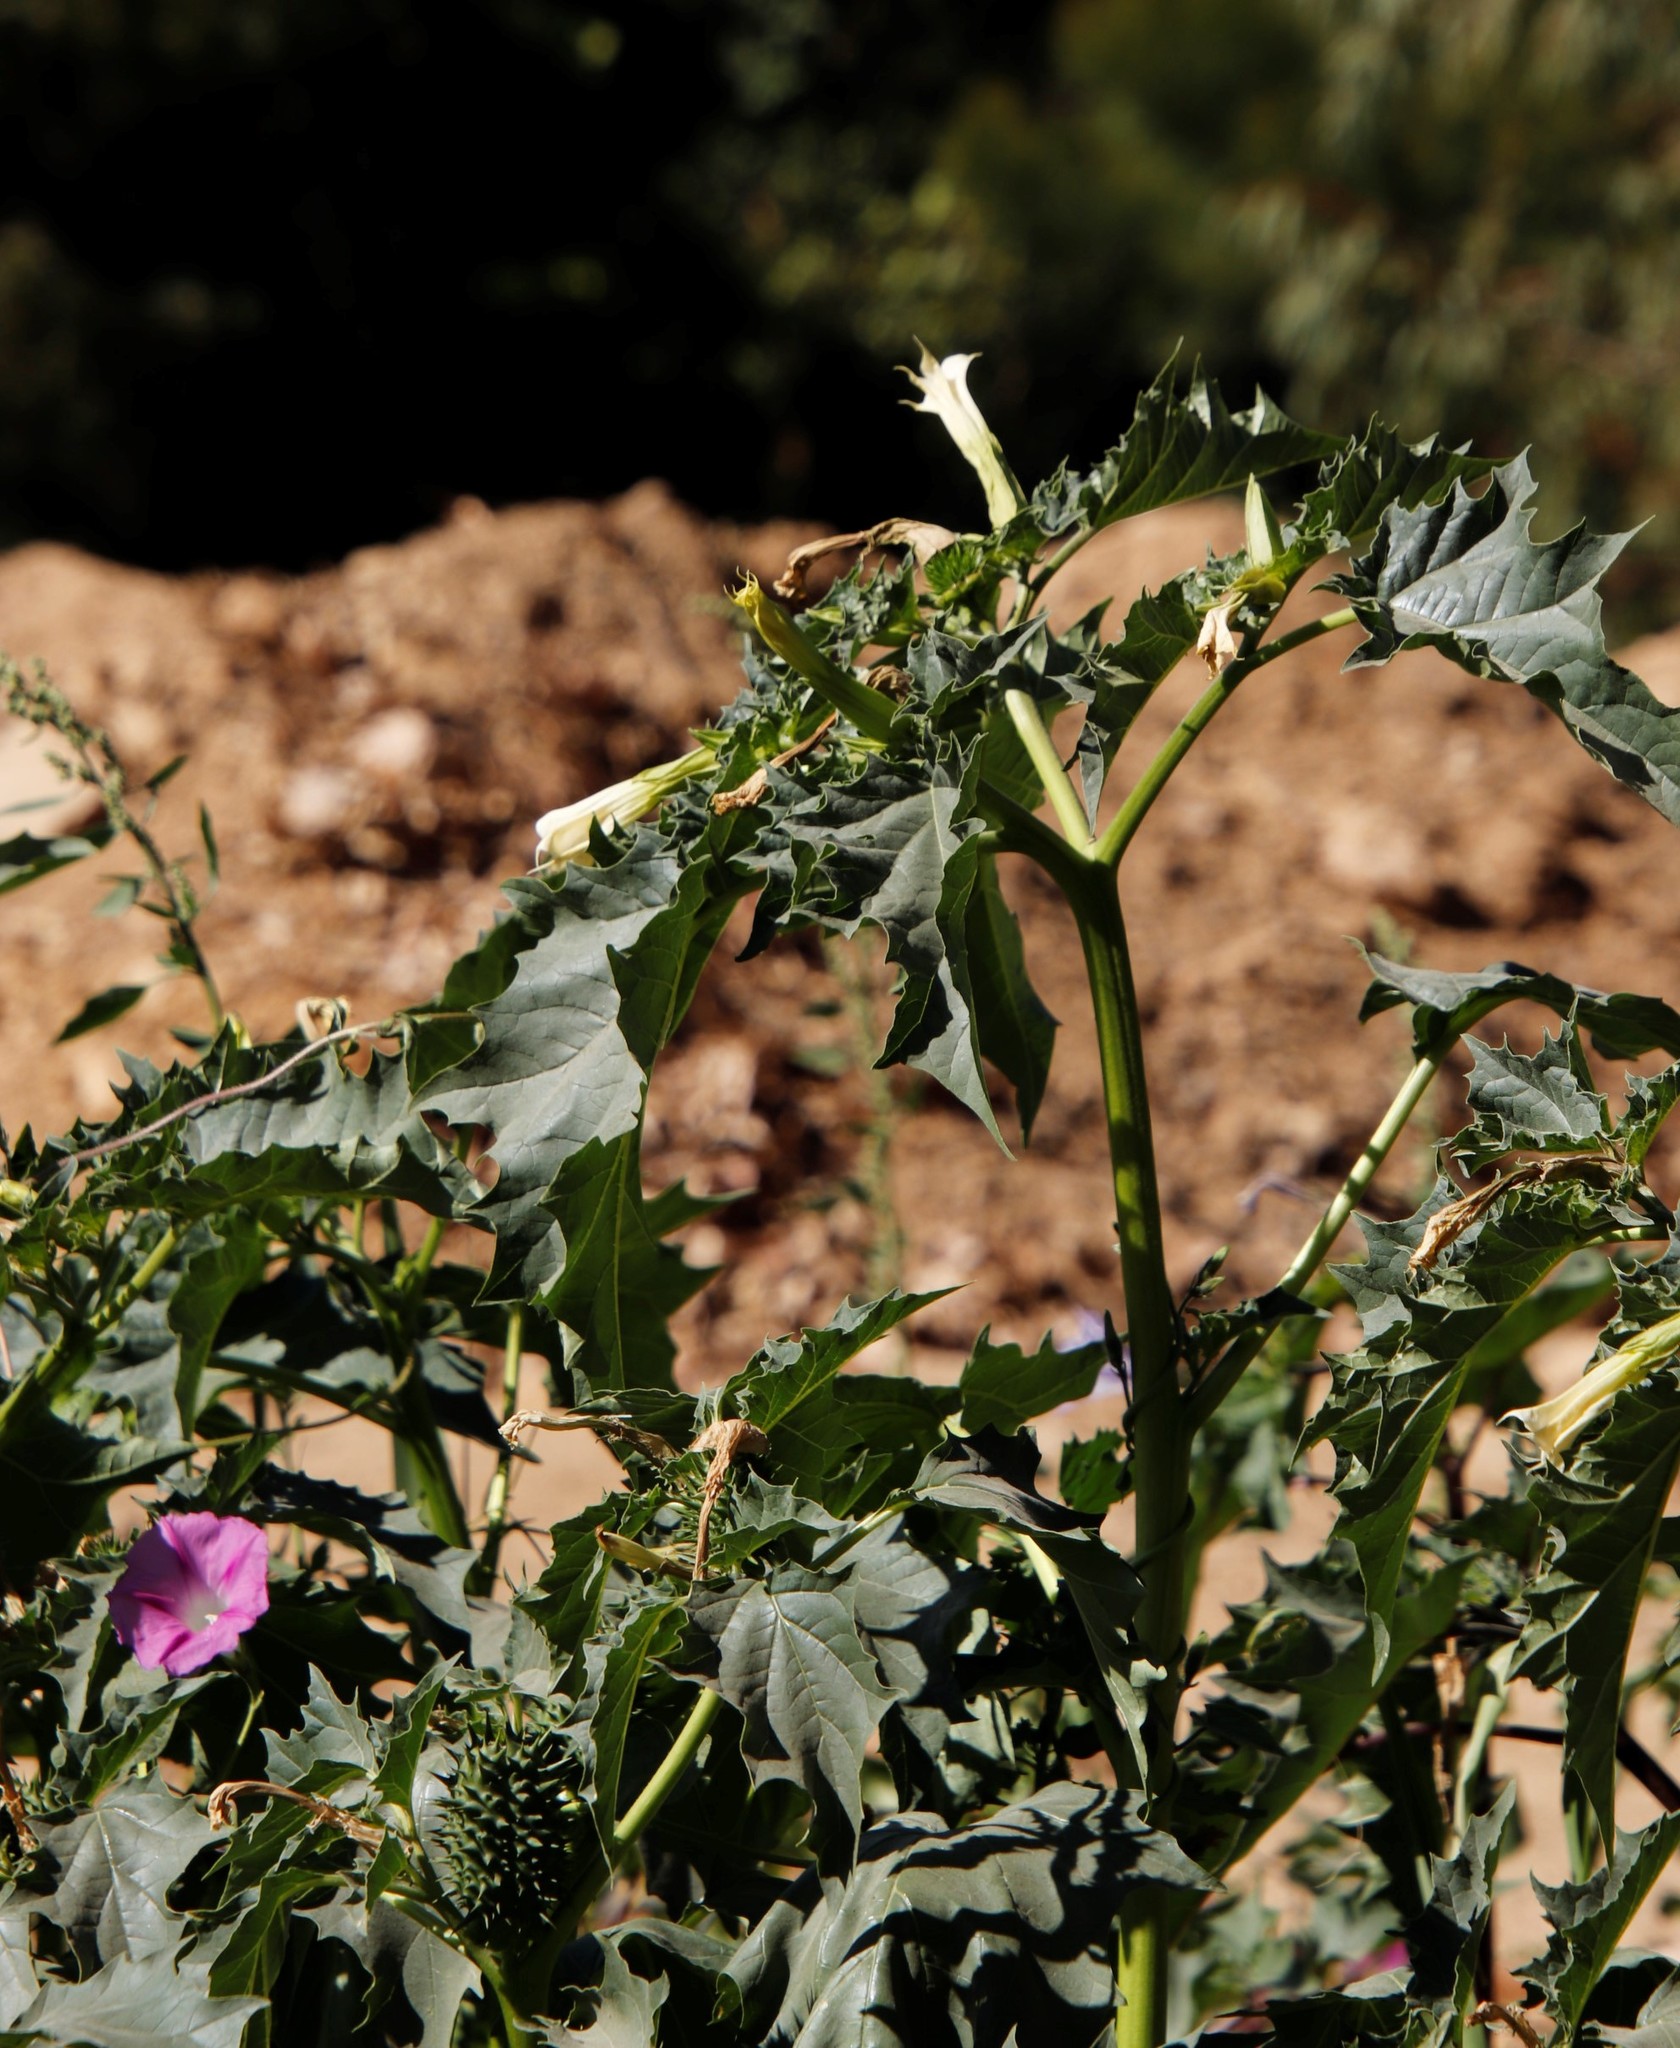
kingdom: Plantae
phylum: Tracheophyta
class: Magnoliopsida
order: Solanales
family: Solanaceae
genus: Datura
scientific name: Datura stramonium
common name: Thorn-apple
